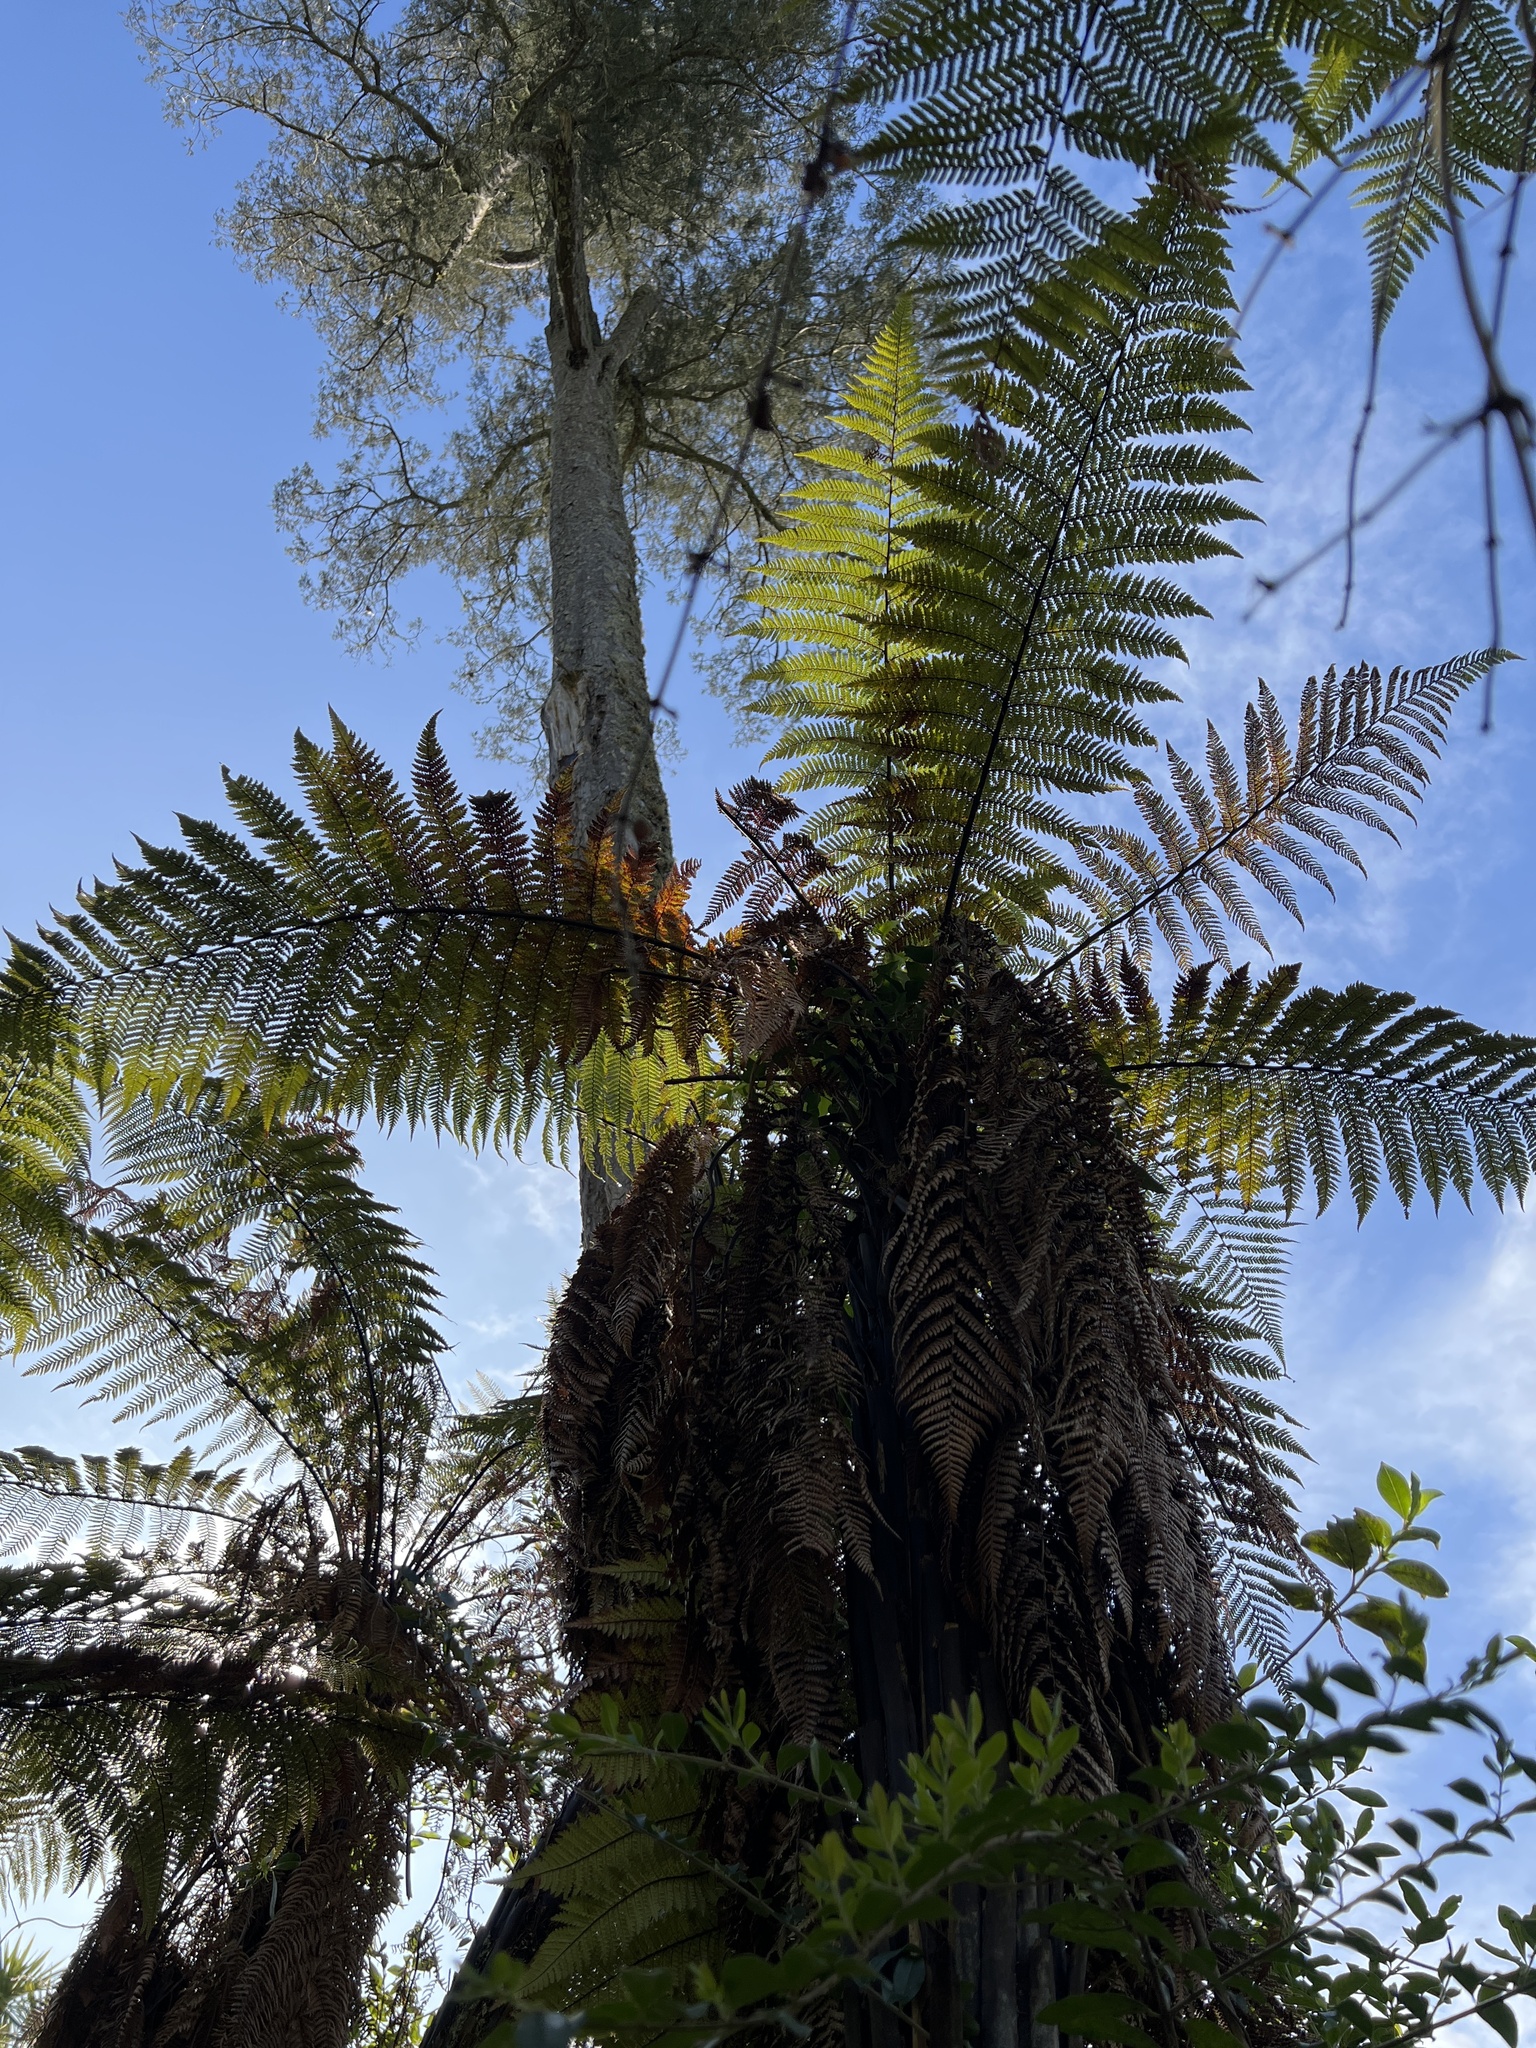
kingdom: Plantae
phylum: Tracheophyta
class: Polypodiopsida
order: Cyatheales
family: Dicksoniaceae
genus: Dicksonia
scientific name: Dicksonia squarrosa
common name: Hard treefern
